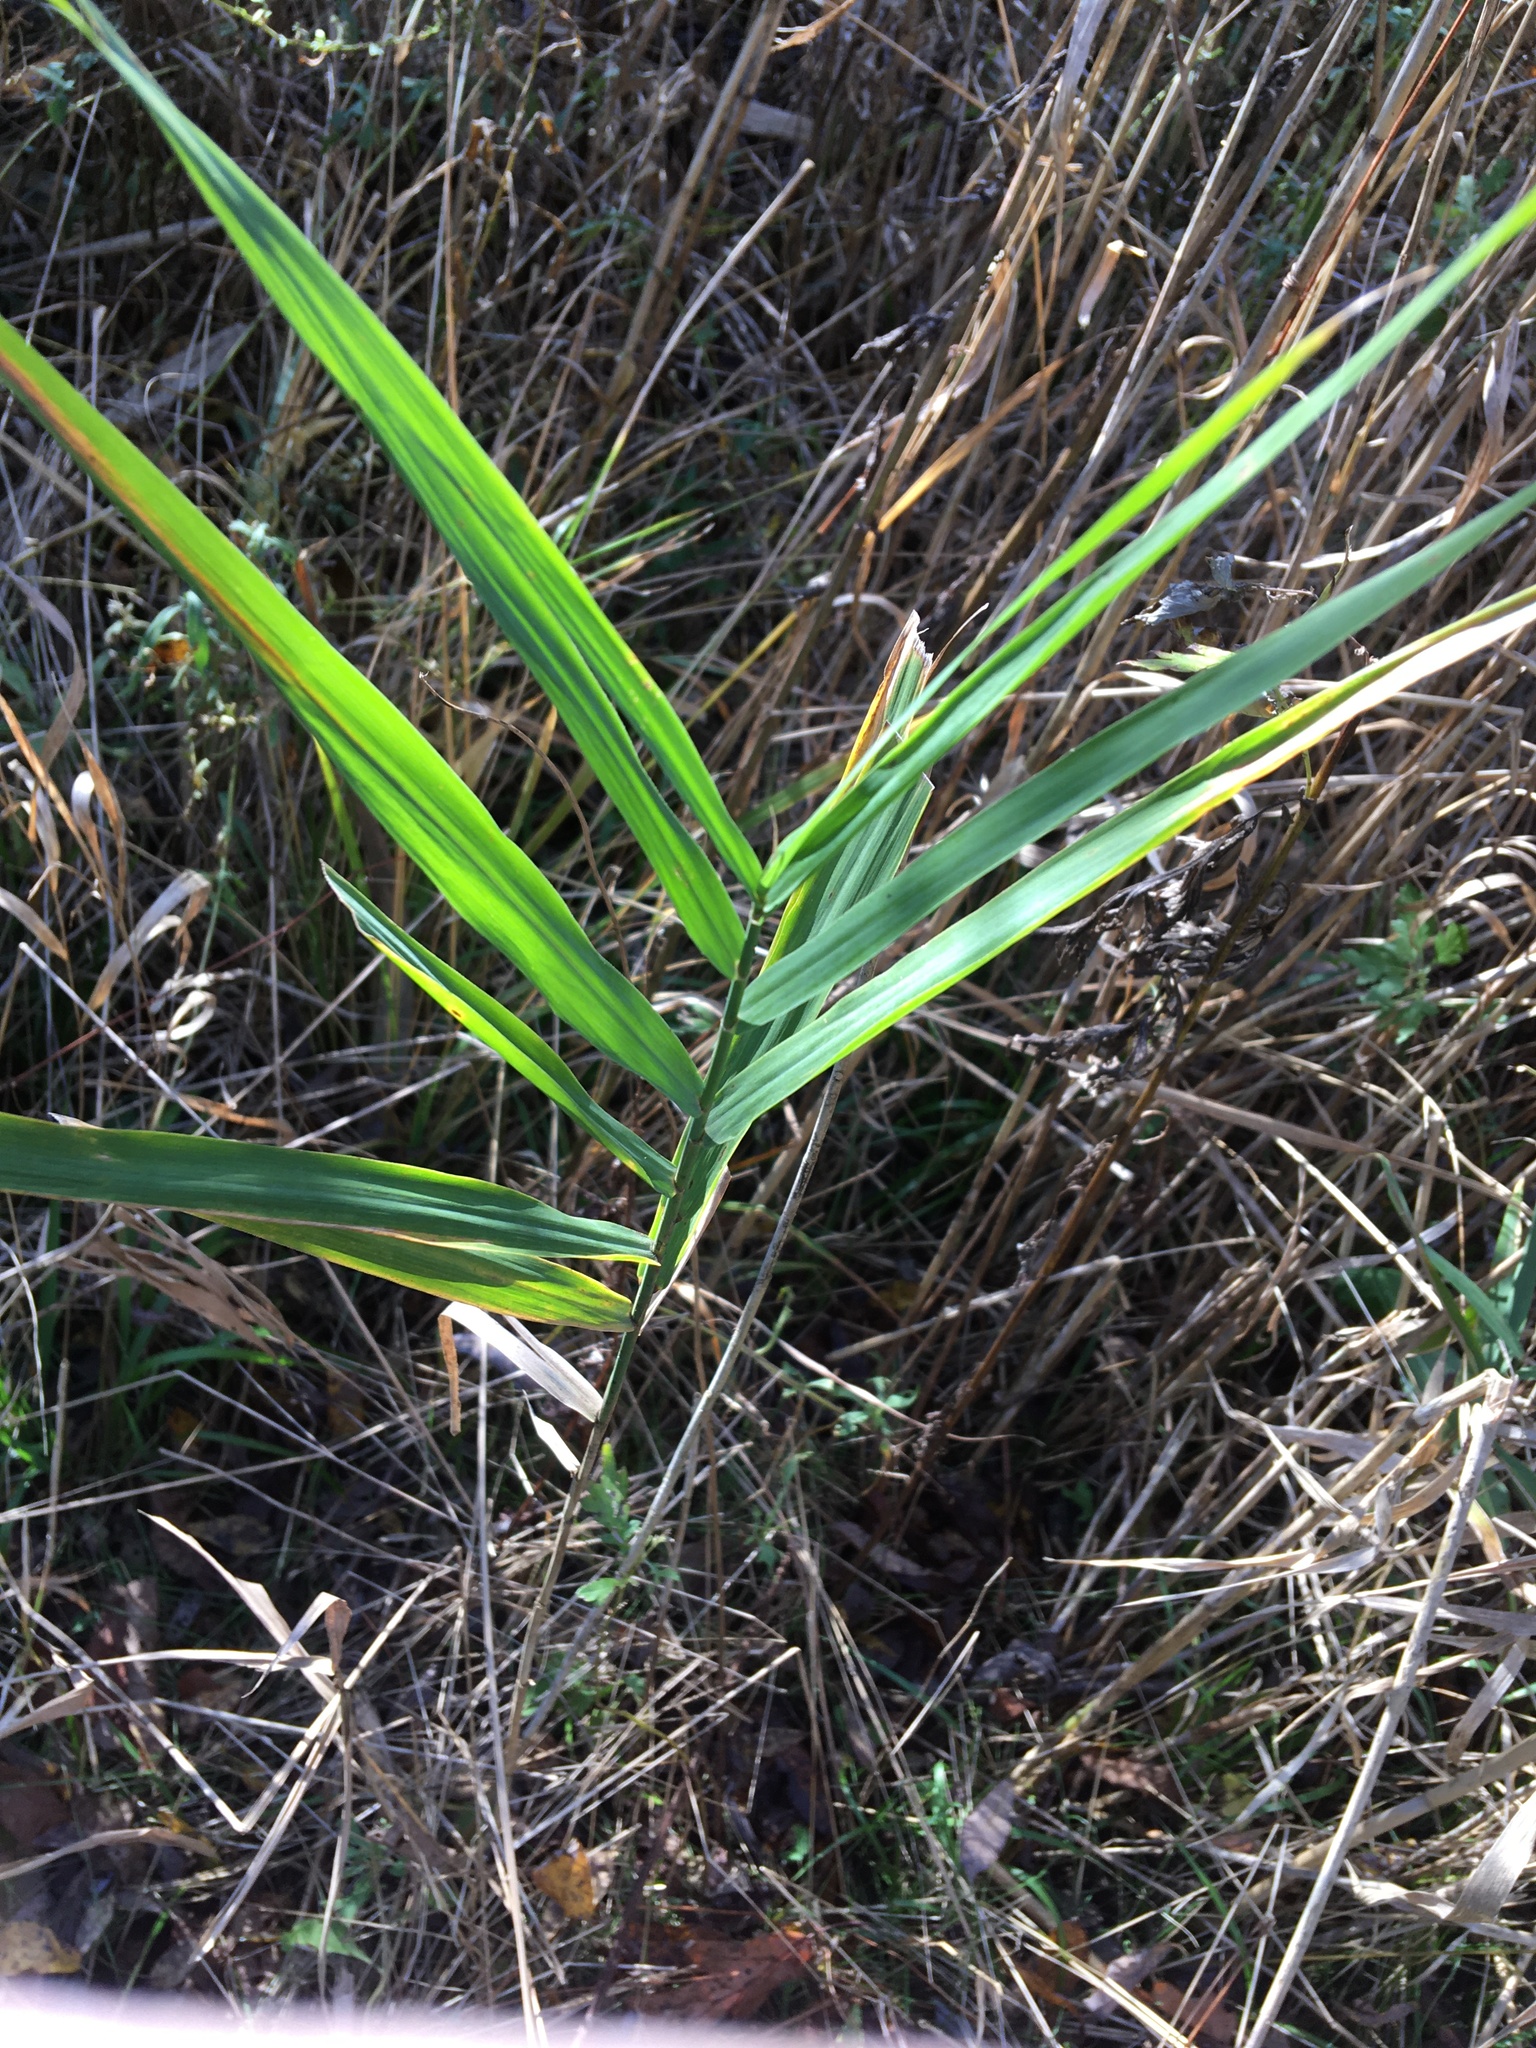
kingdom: Plantae
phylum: Tracheophyta
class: Liliopsida
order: Poales
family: Poaceae
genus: Phragmites
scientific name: Phragmites australis
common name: Common reed
